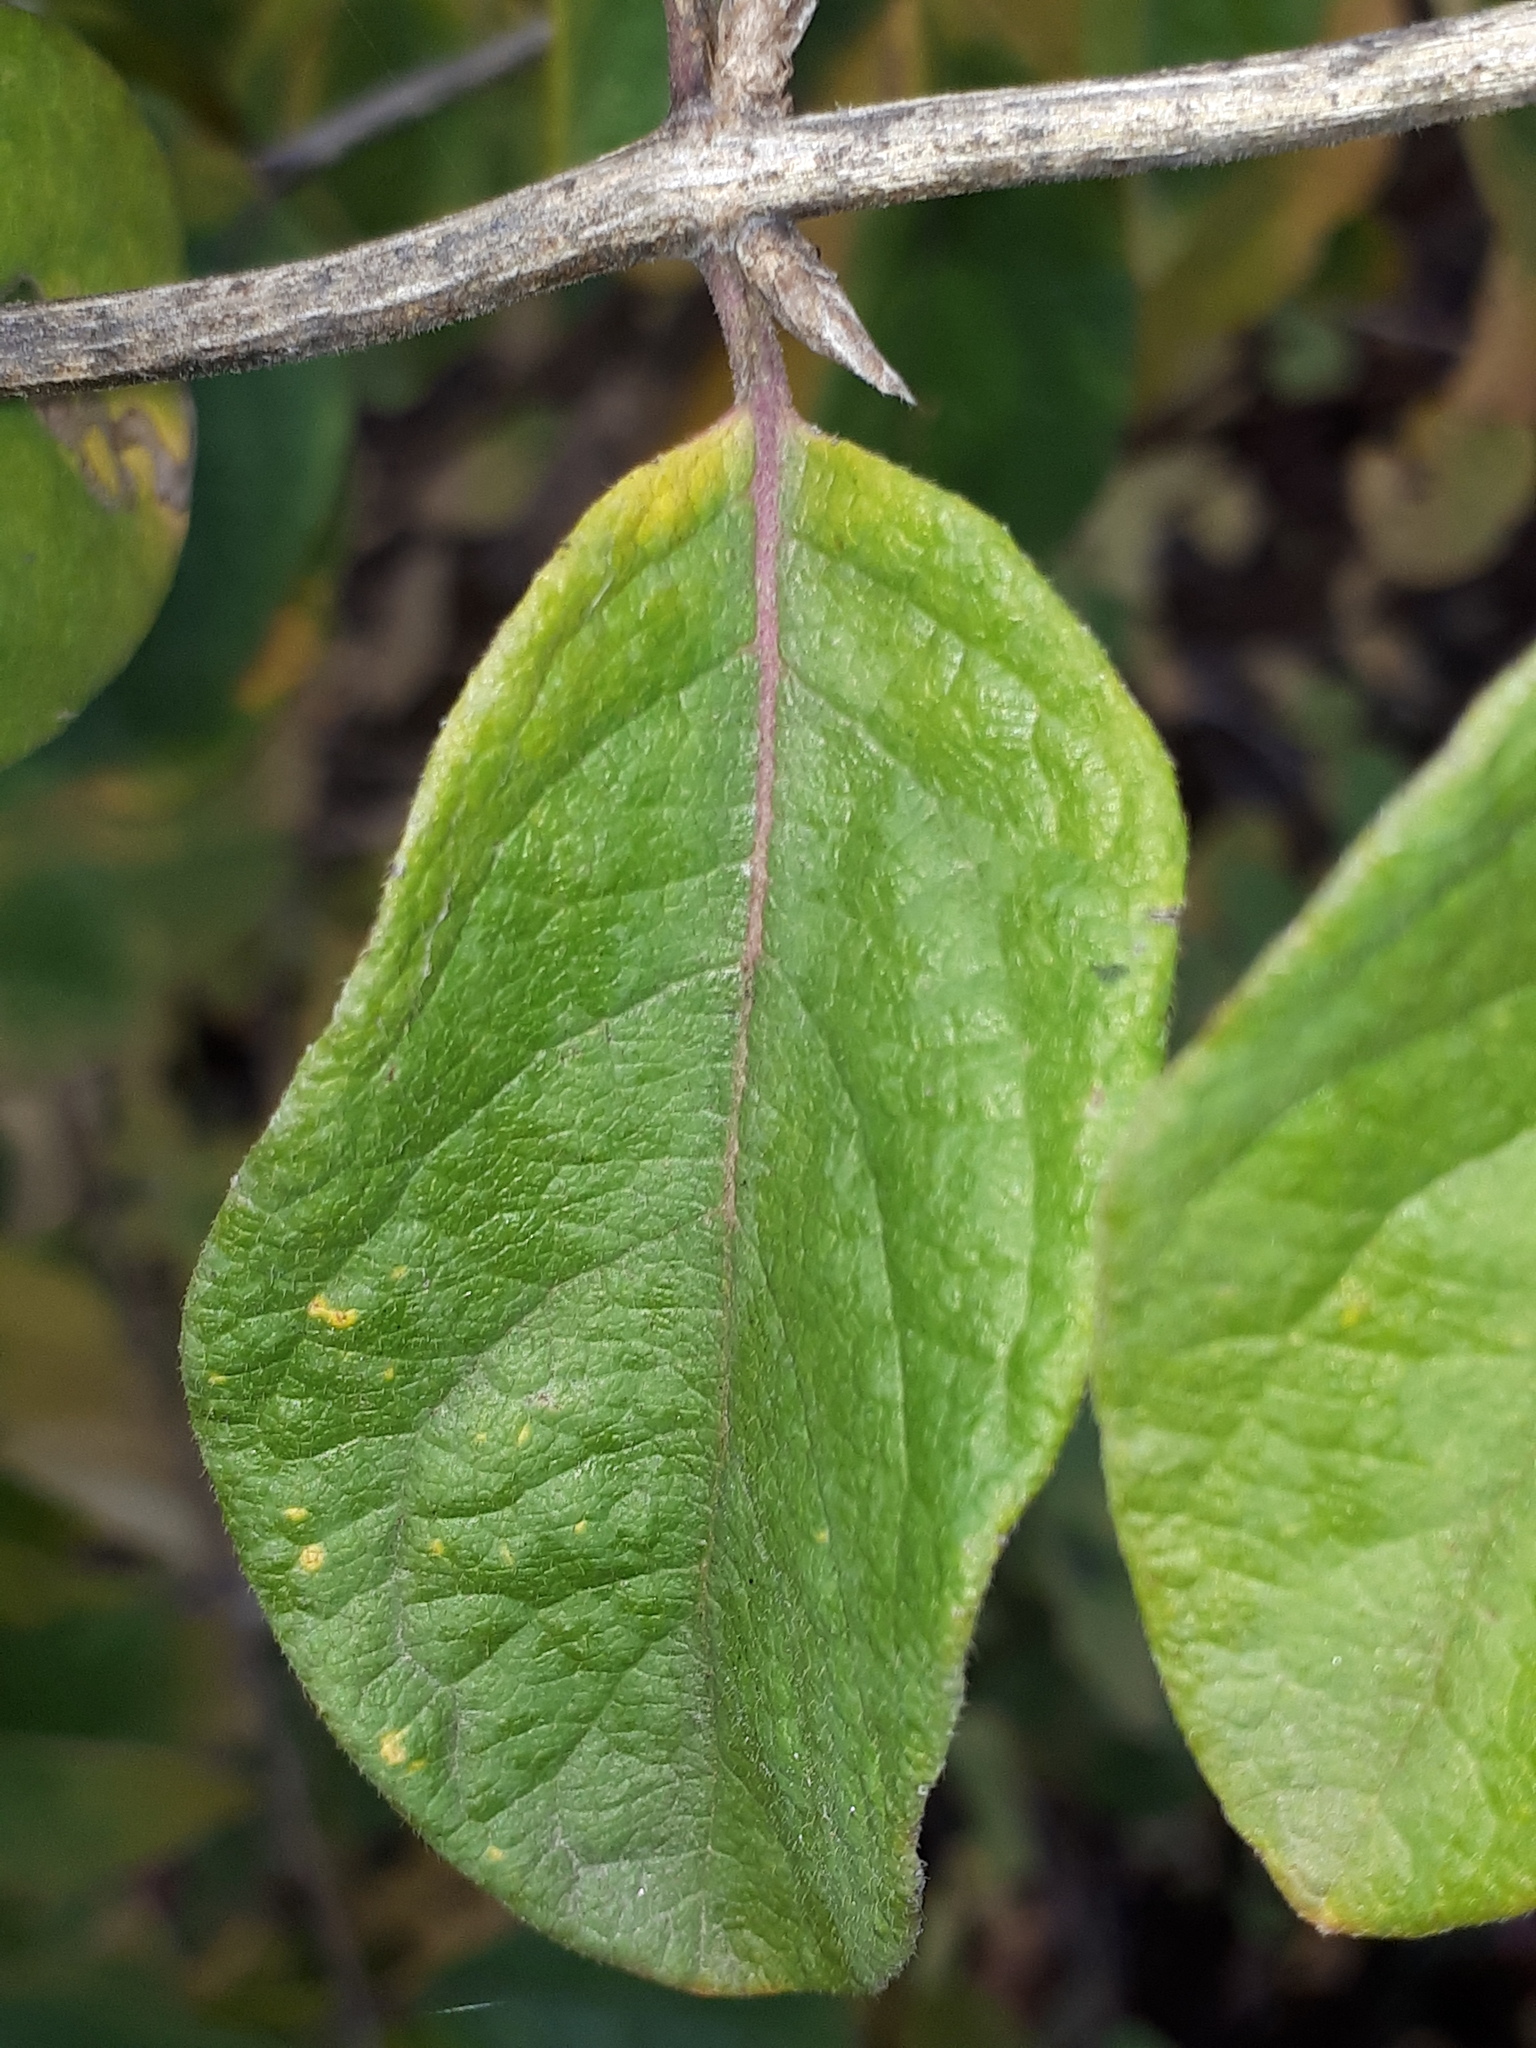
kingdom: Plantae
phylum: Tracheophyta
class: Magnoliopsida
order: Dipsacales
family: Caprifoliaceae
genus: Lonicera
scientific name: Lonicera xylosteum
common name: Fly honeysuckle
